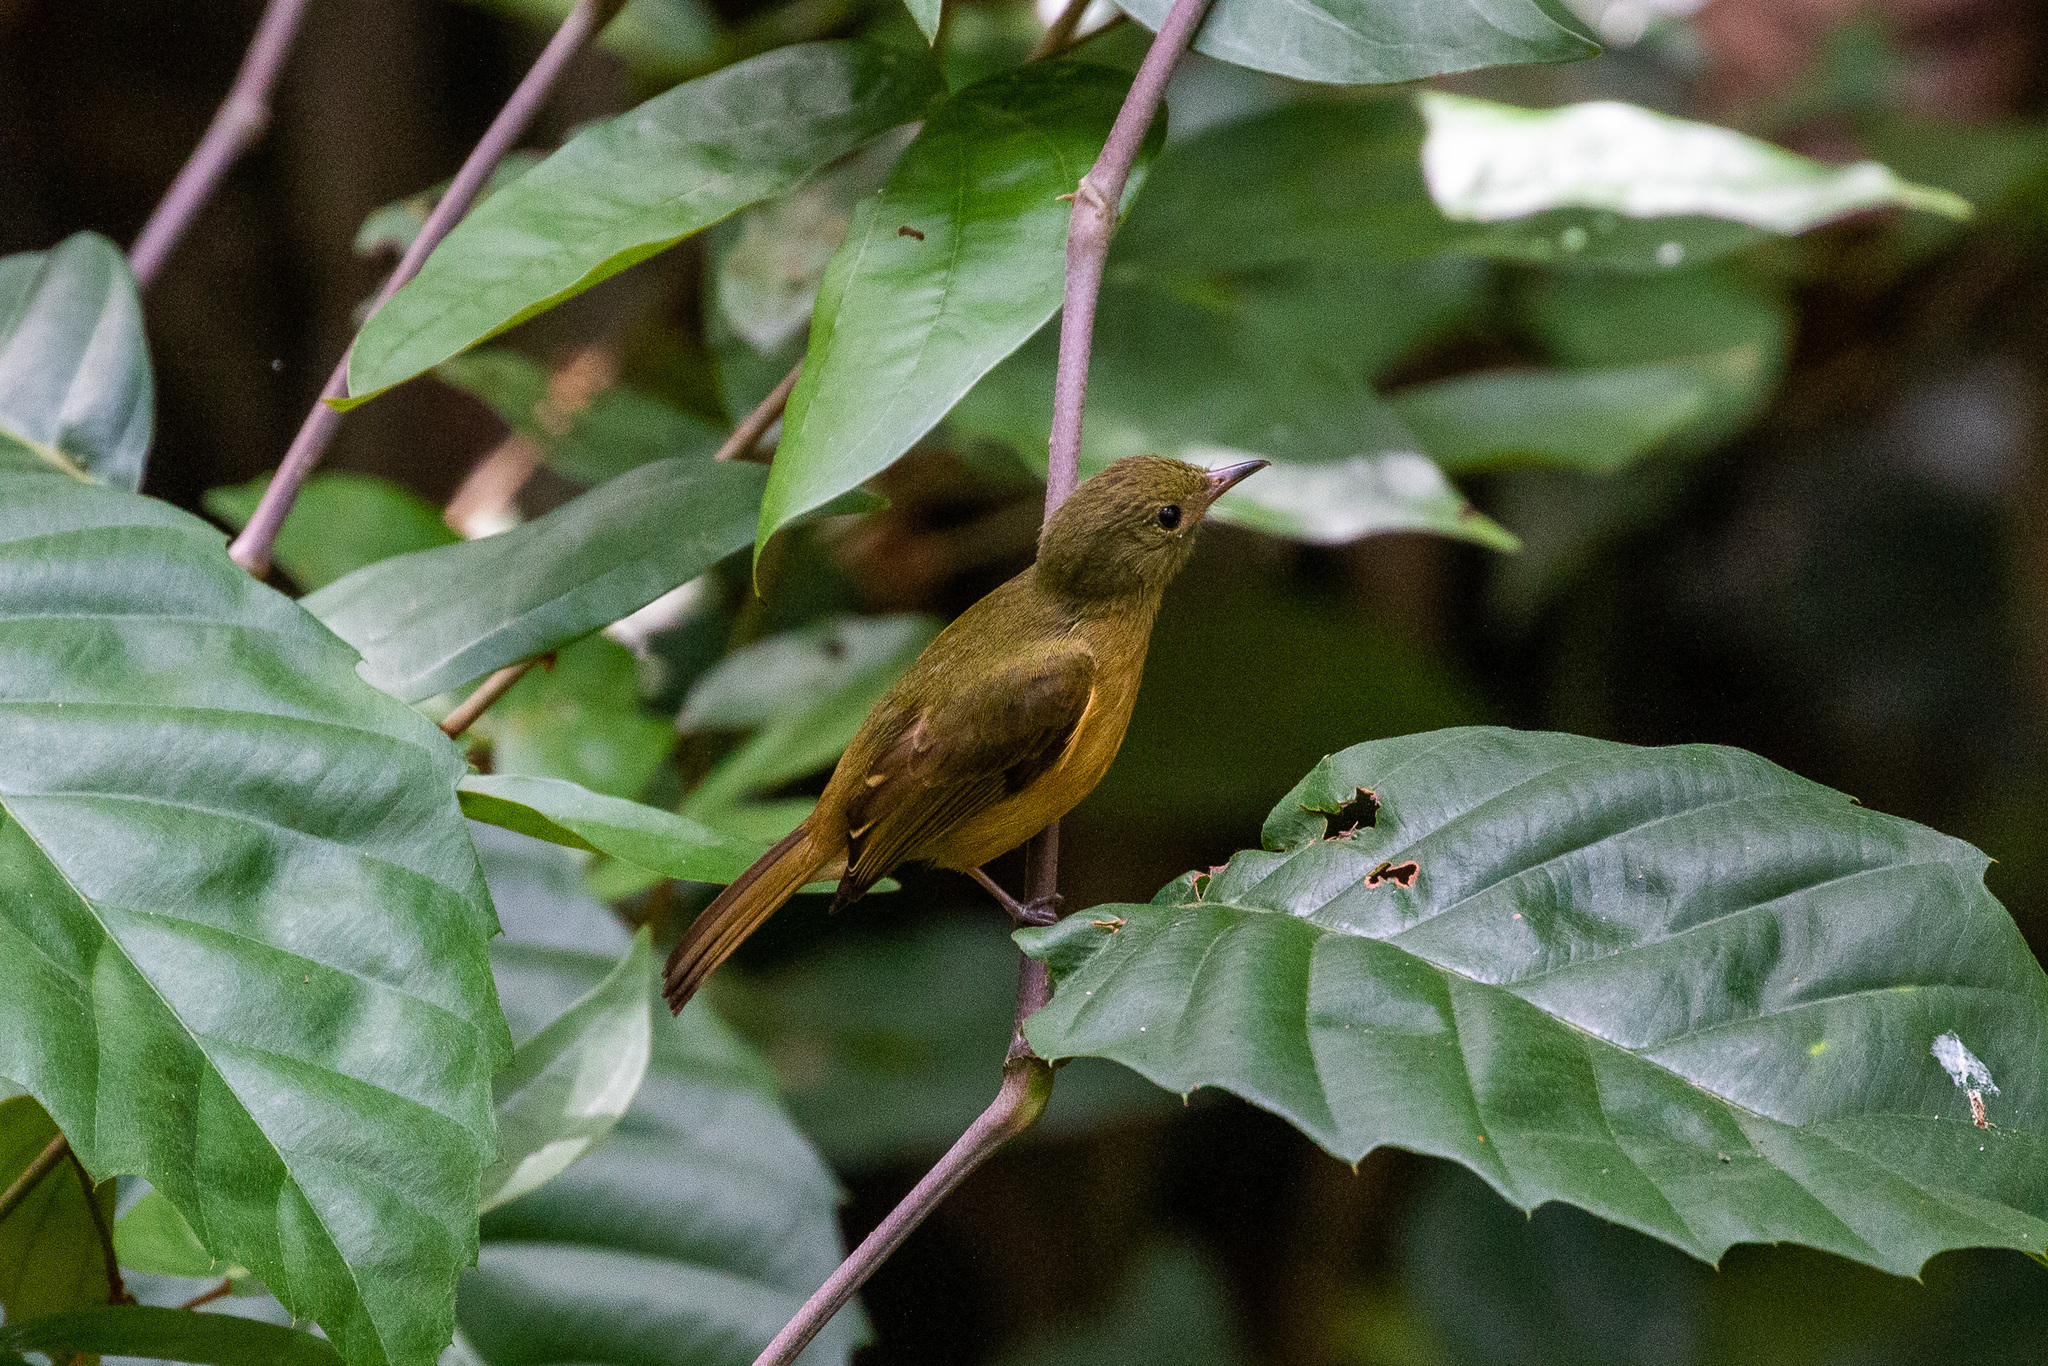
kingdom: Animalia
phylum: Chordata
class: Aves
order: Passeriformes
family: Tyrannidae
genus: Mionectes
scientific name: Mionectes oleagineus
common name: Ochre-bellied flycatcher
